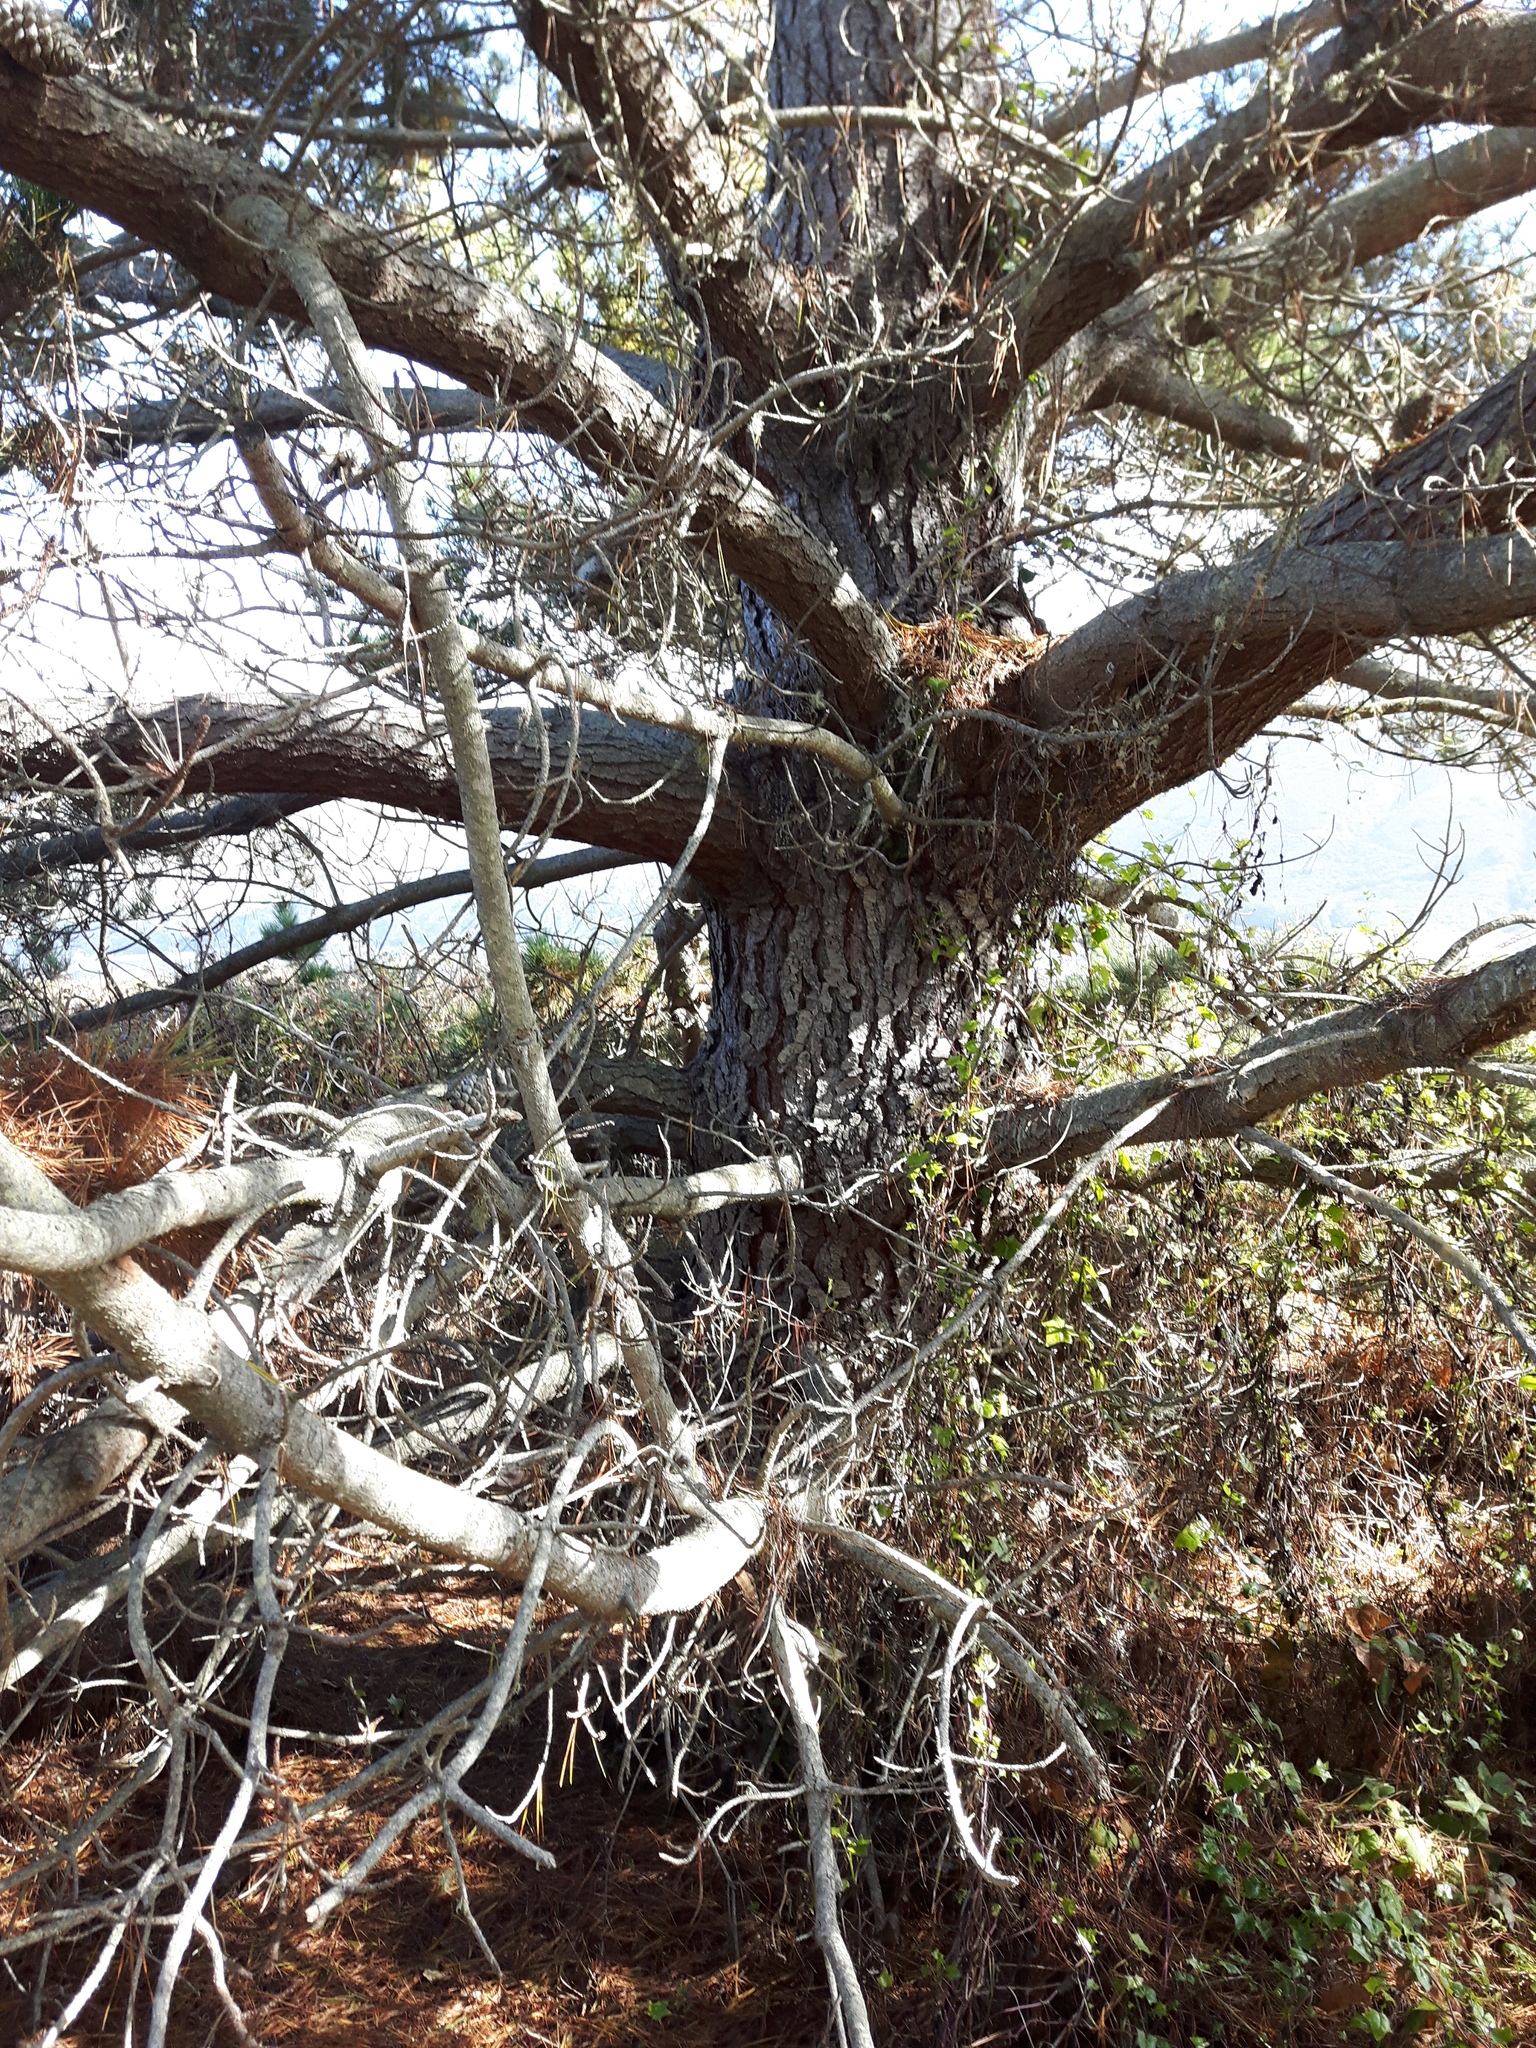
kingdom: Plantae
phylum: Tracheophyta
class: Pinopsida
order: Pinales
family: Pinaceae
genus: Pinus
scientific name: Pinus radiata
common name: Monterey pine
